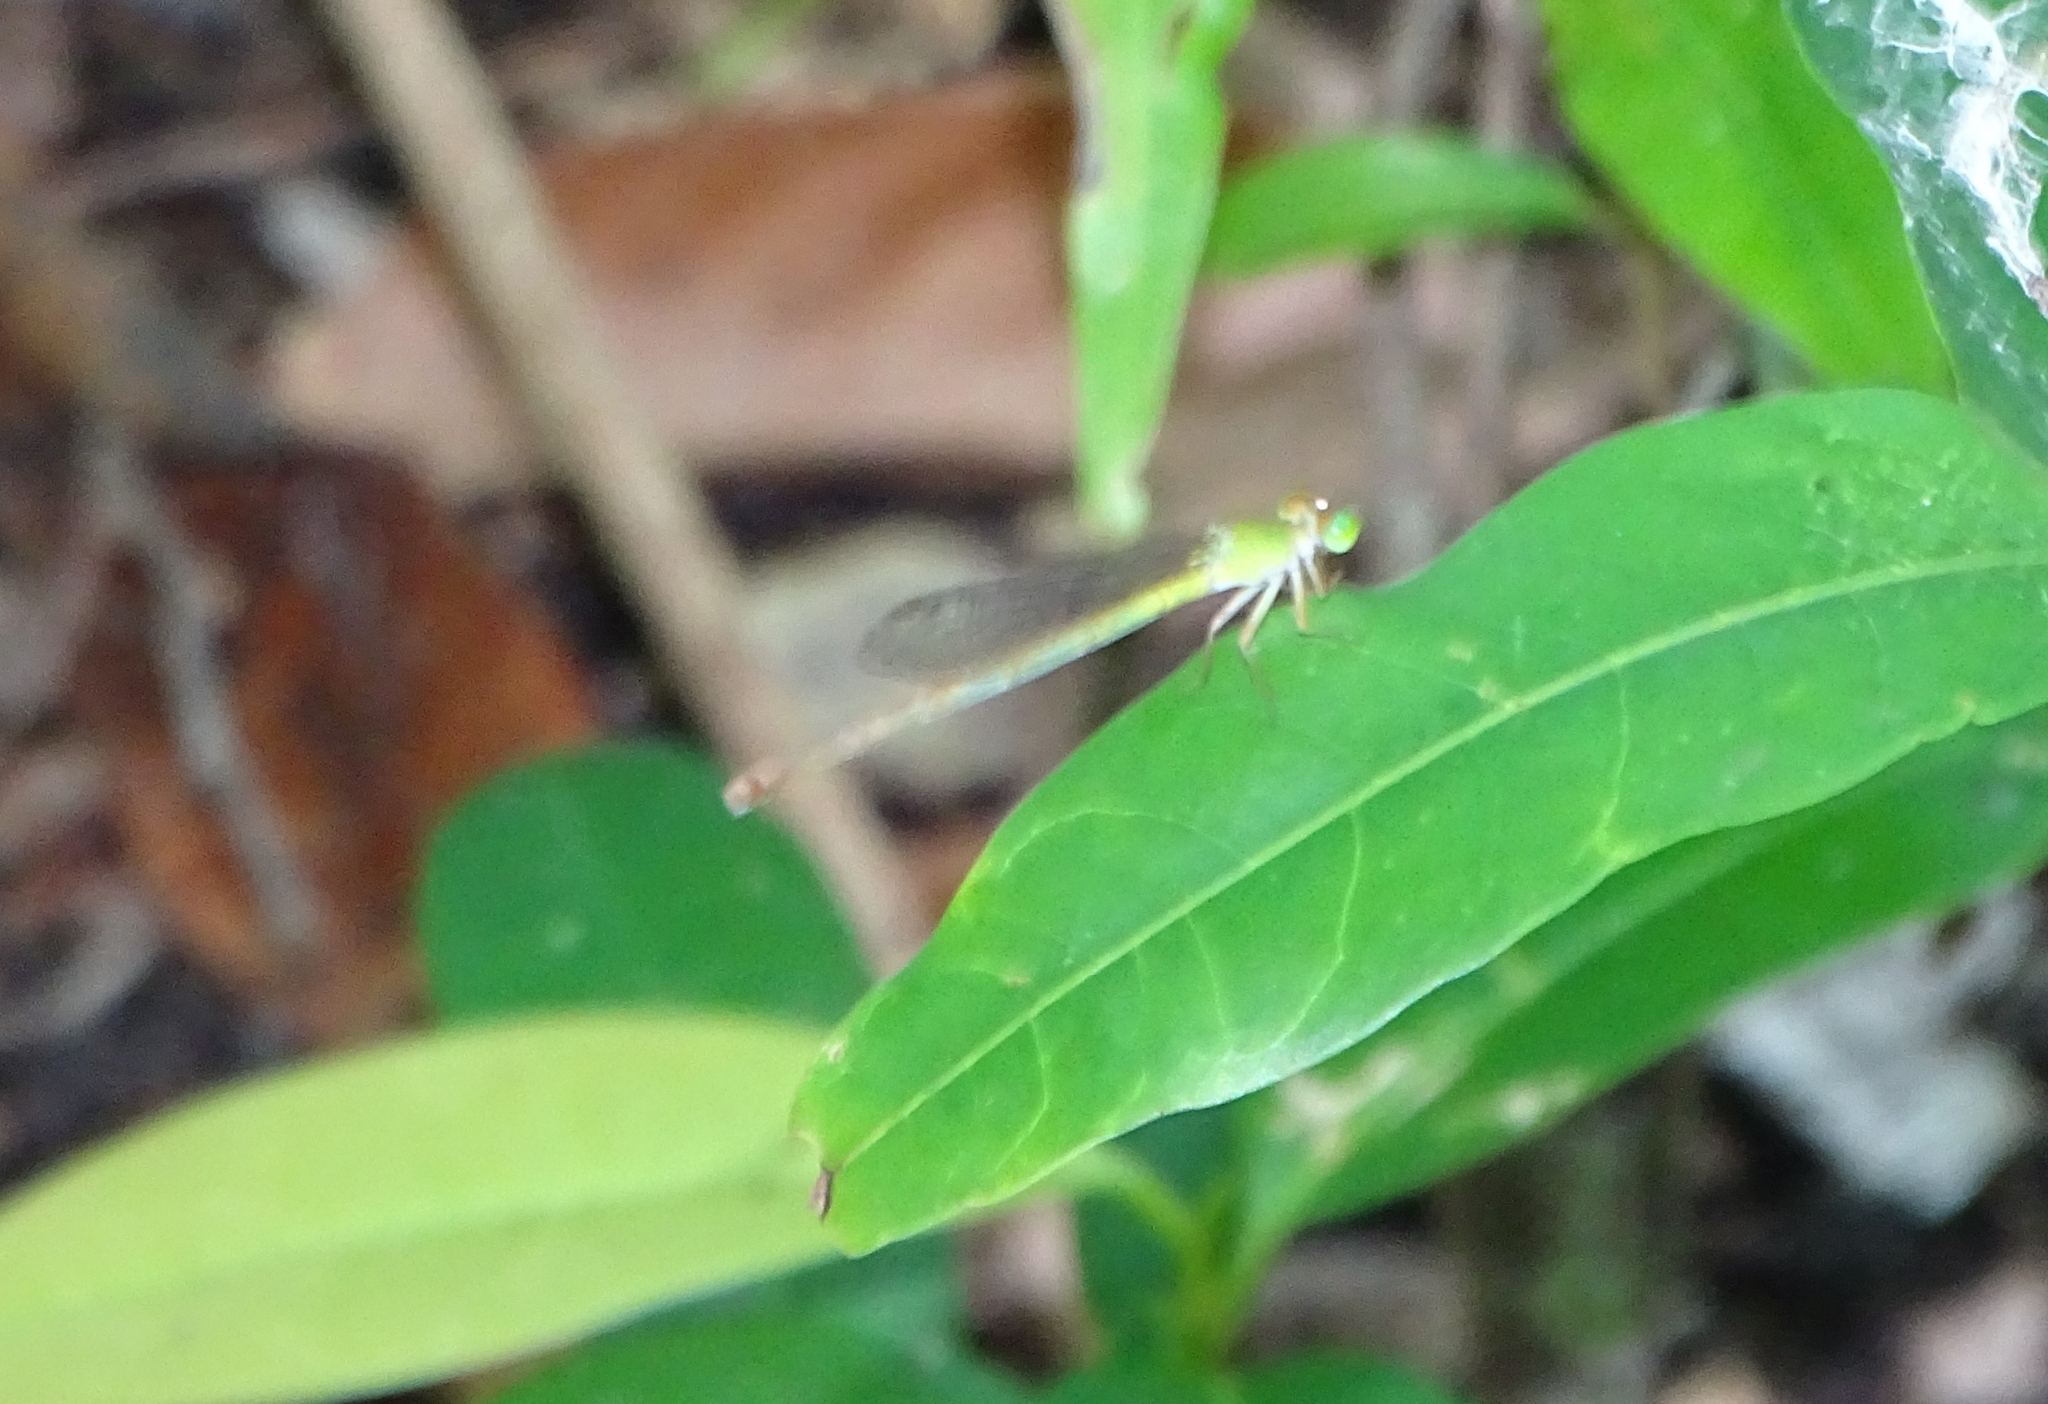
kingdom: Animalia
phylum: Arthropoda
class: Insecta
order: Odonata
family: Coenagrionidae
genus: Ceriagrion
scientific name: Ceriagrion coromandelianum
